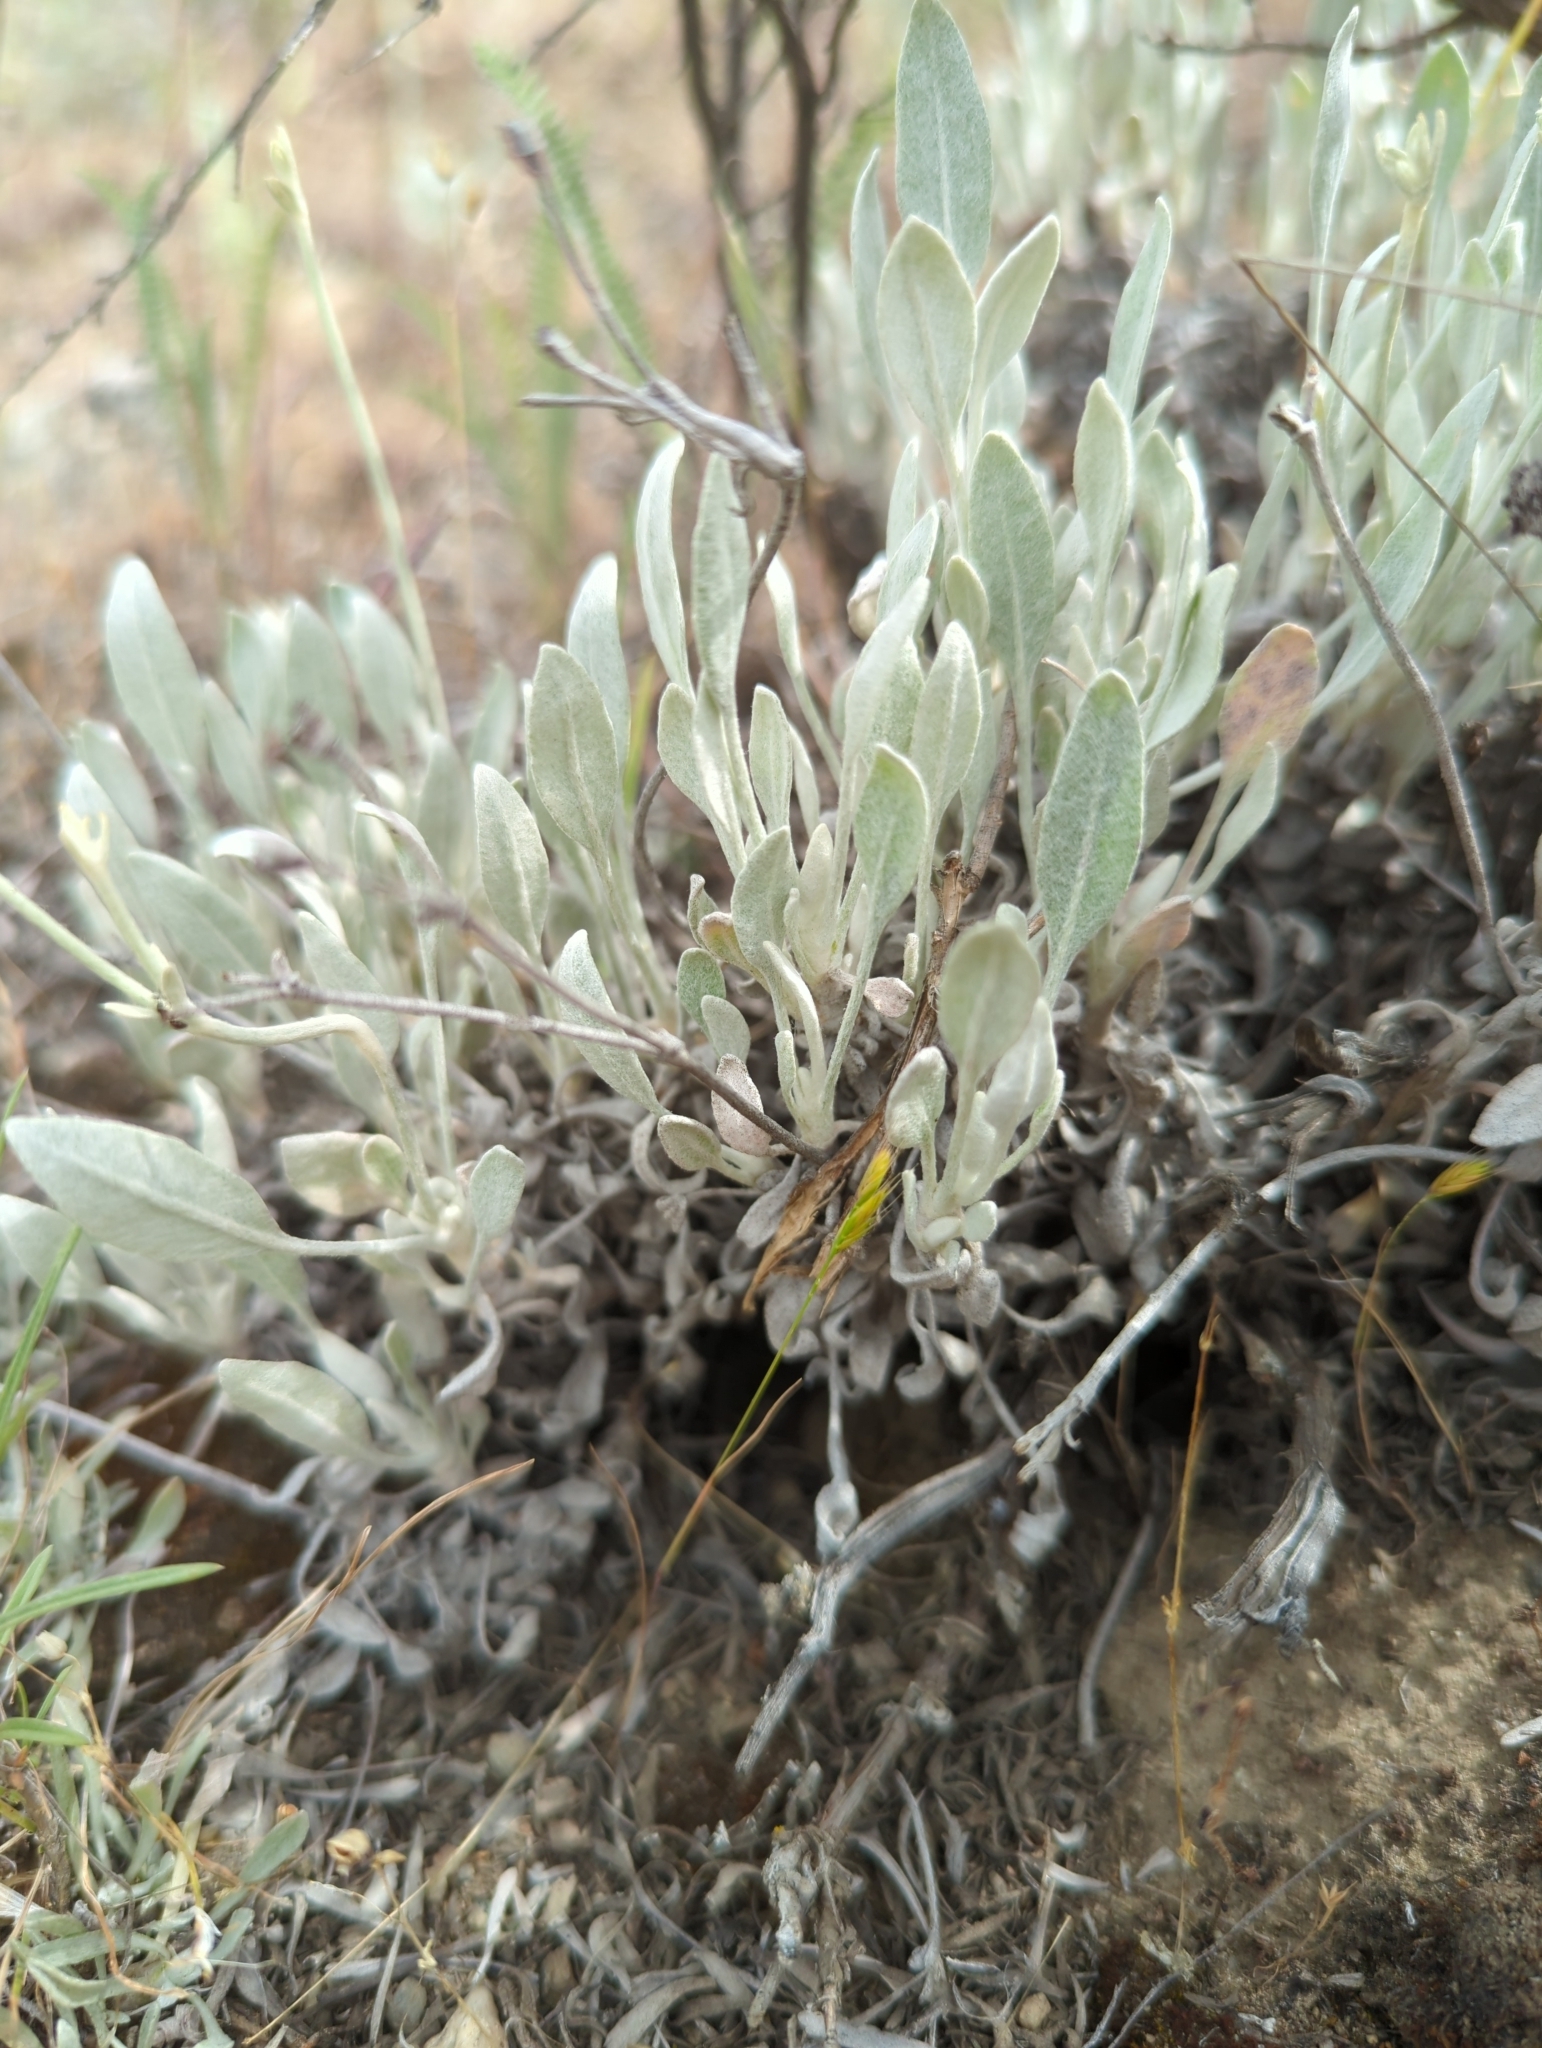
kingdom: Plantae
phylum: Tracheophyta
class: Magnoliopsida
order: Caryophyllales
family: Polygonaceae
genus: Eriogonum
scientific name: Eriogonum niveum
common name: Snow wild buckwheat
